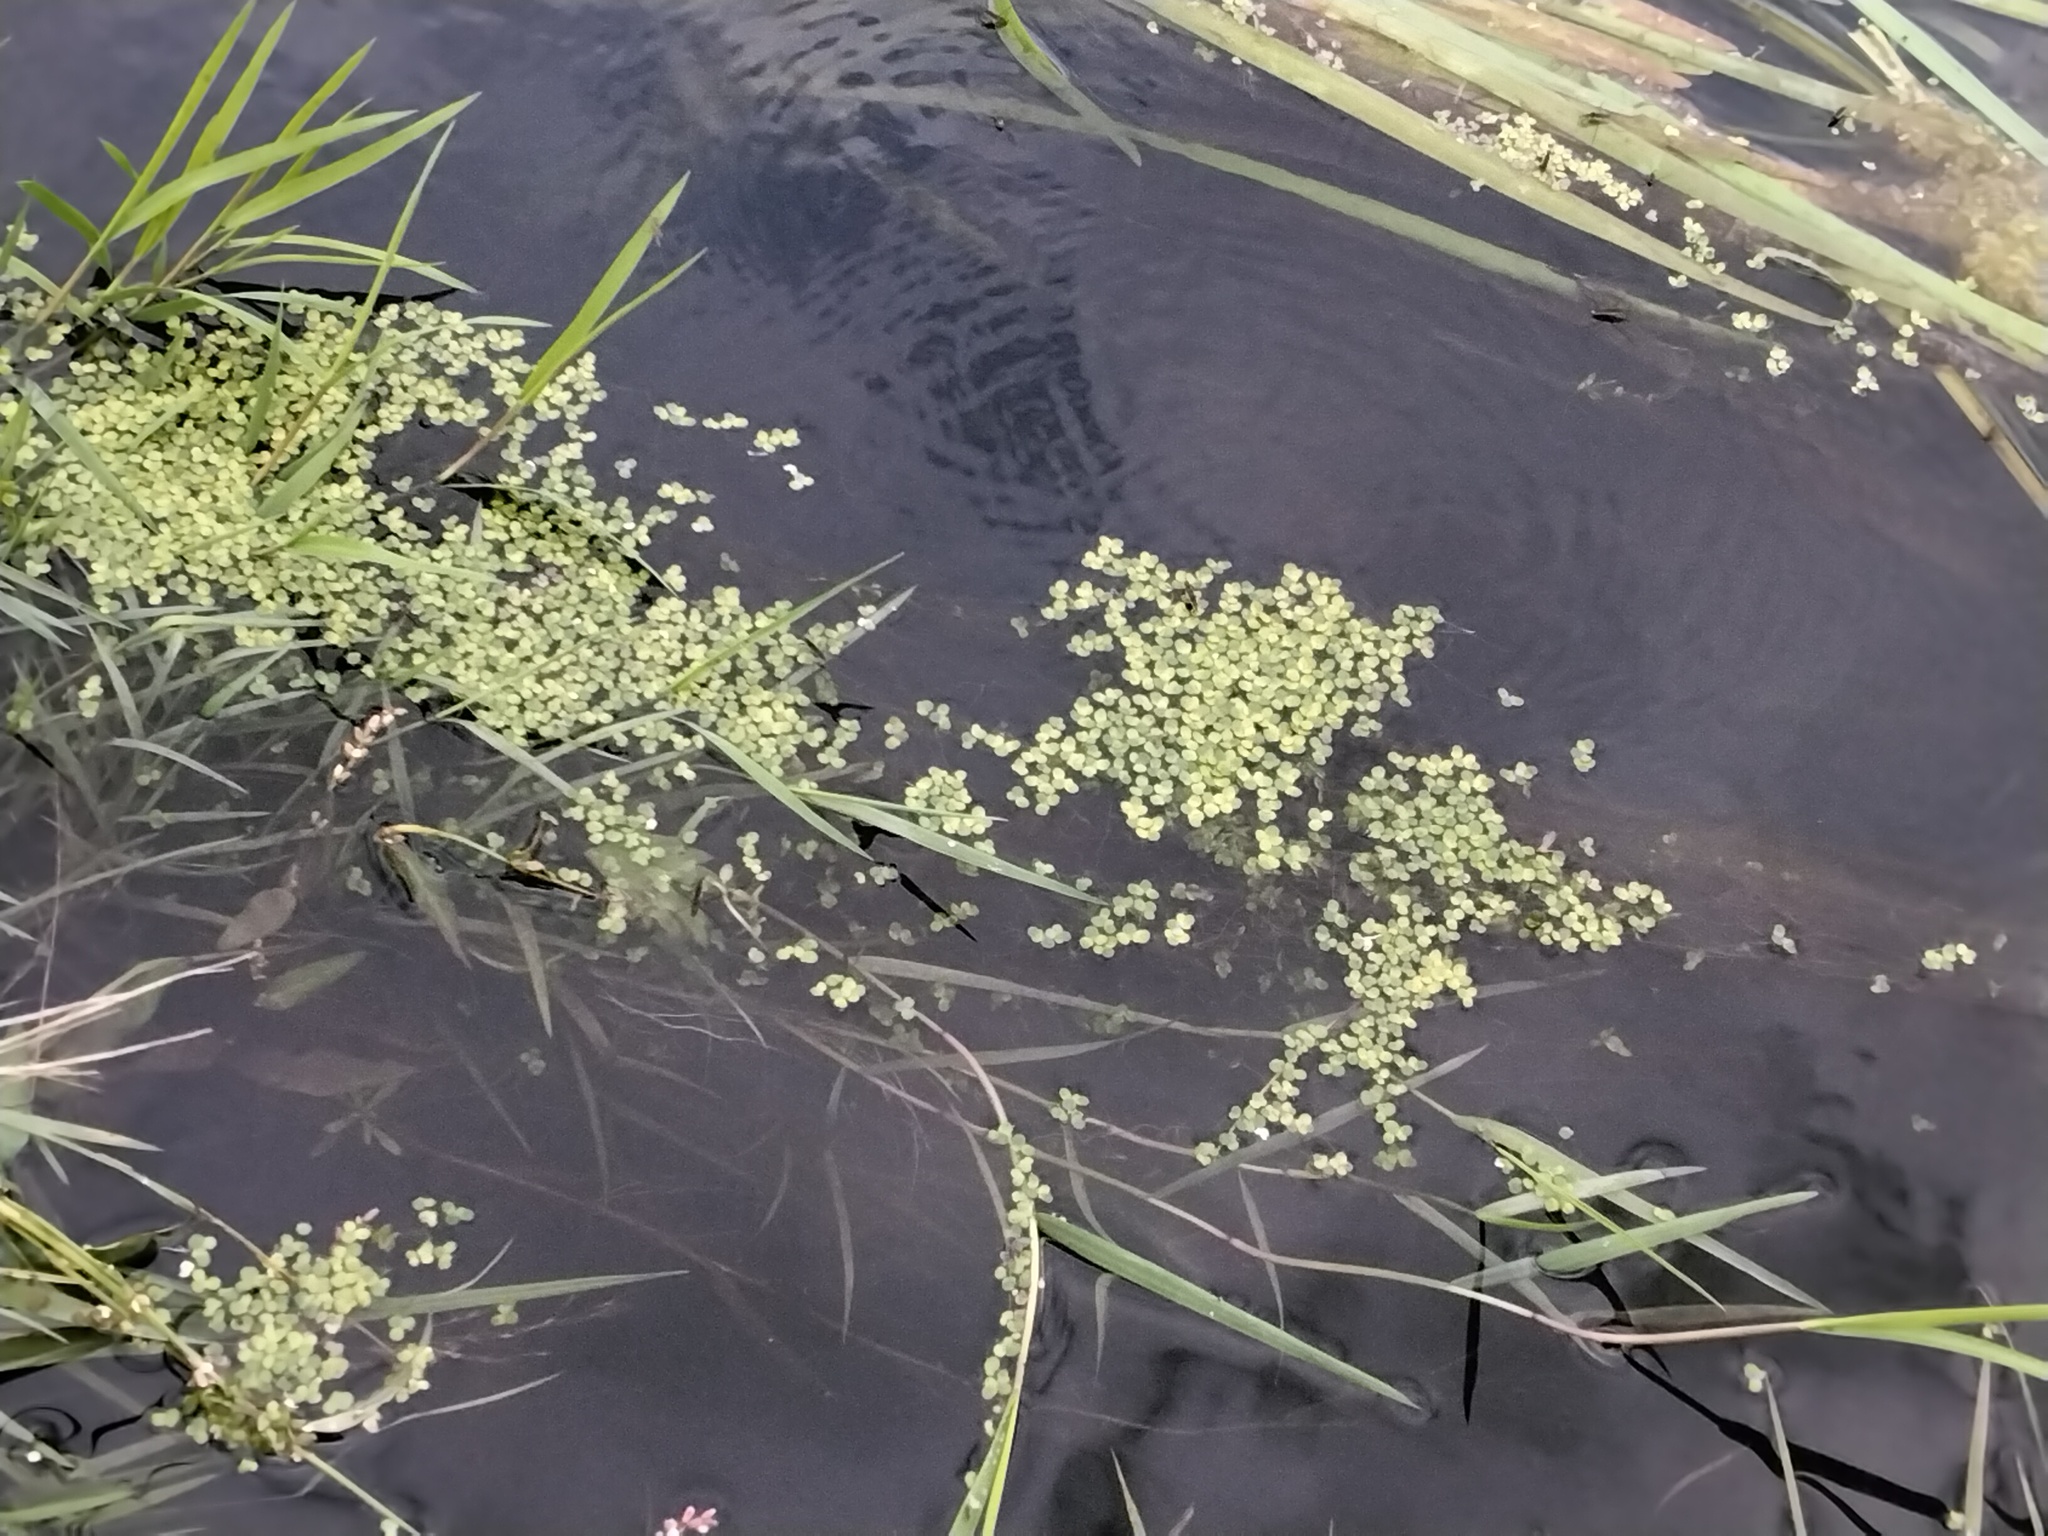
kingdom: Plantae
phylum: Tracheophyta
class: Liliopsida
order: Alismatales
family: Araceae
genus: Lemna
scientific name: Lemna minor
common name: Common duckweed
